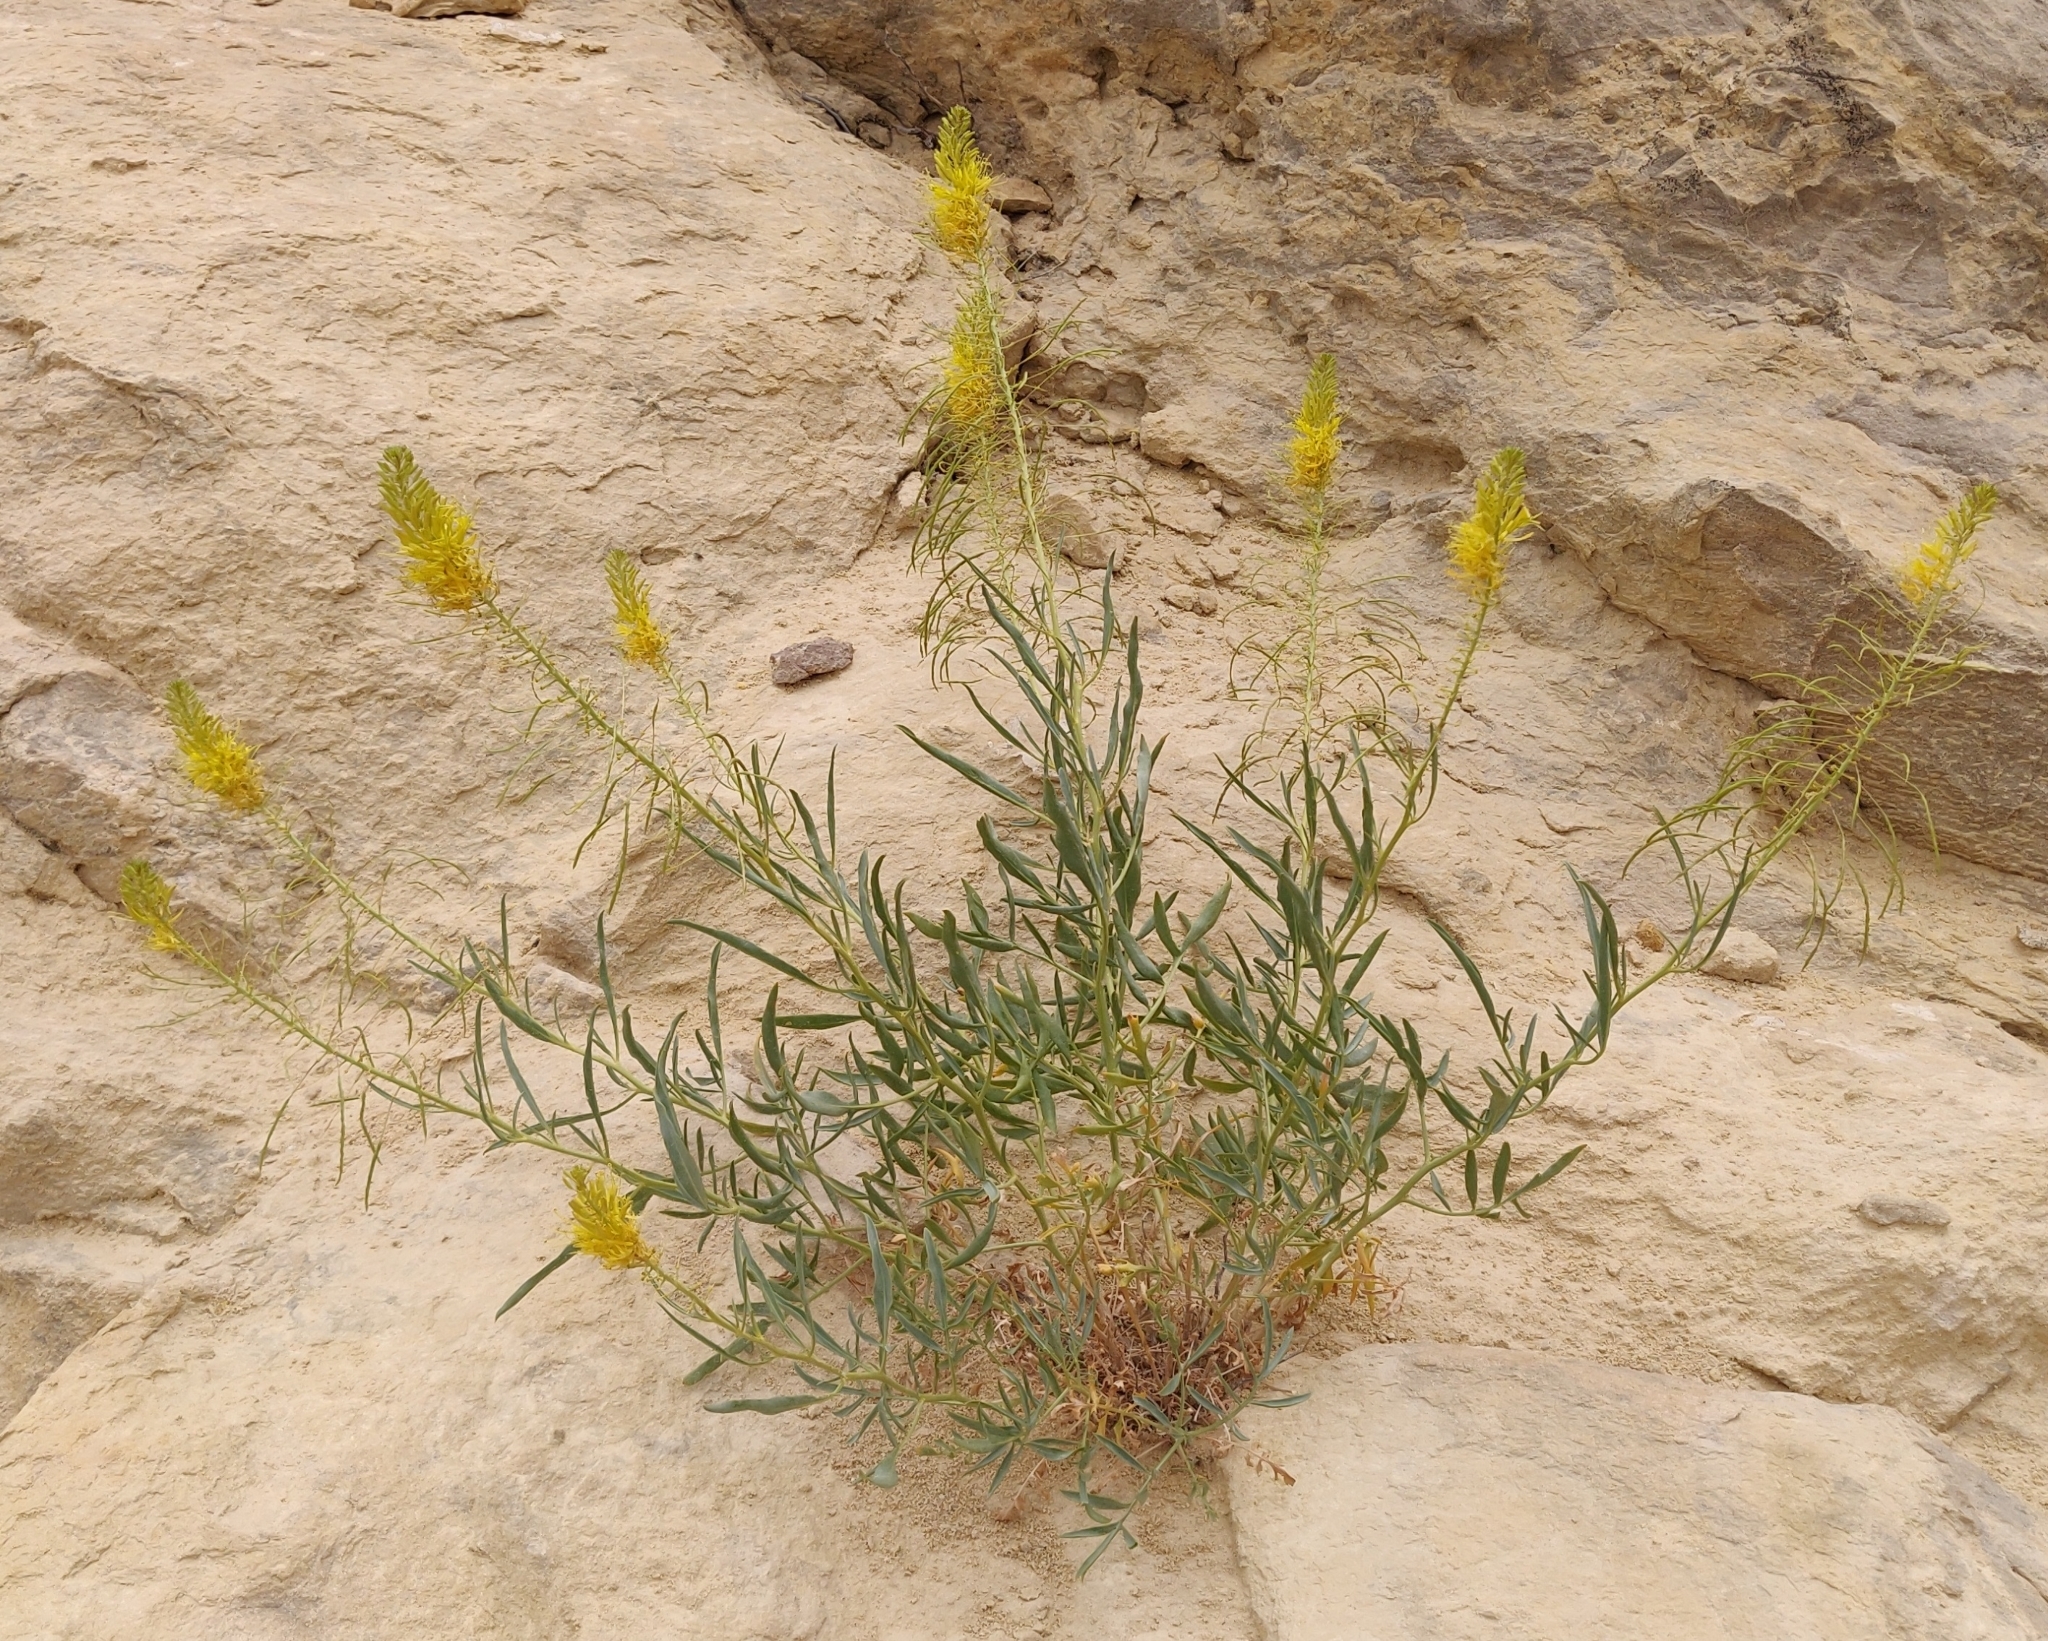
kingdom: Plantae
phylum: Tracheophyta
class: Magnoliopsida
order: Brassicales
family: Brassicaceae
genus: Stanleya
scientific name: Stanleya pinnata
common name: Prince's-plume
